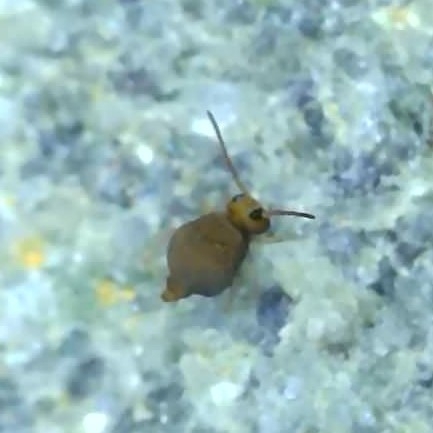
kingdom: Animalia
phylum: Arthropoda
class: Collembola
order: Symphypleona
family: Bourletiellidae
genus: Bourletiella
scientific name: Bourletiella hortensis
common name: Garden springtail
